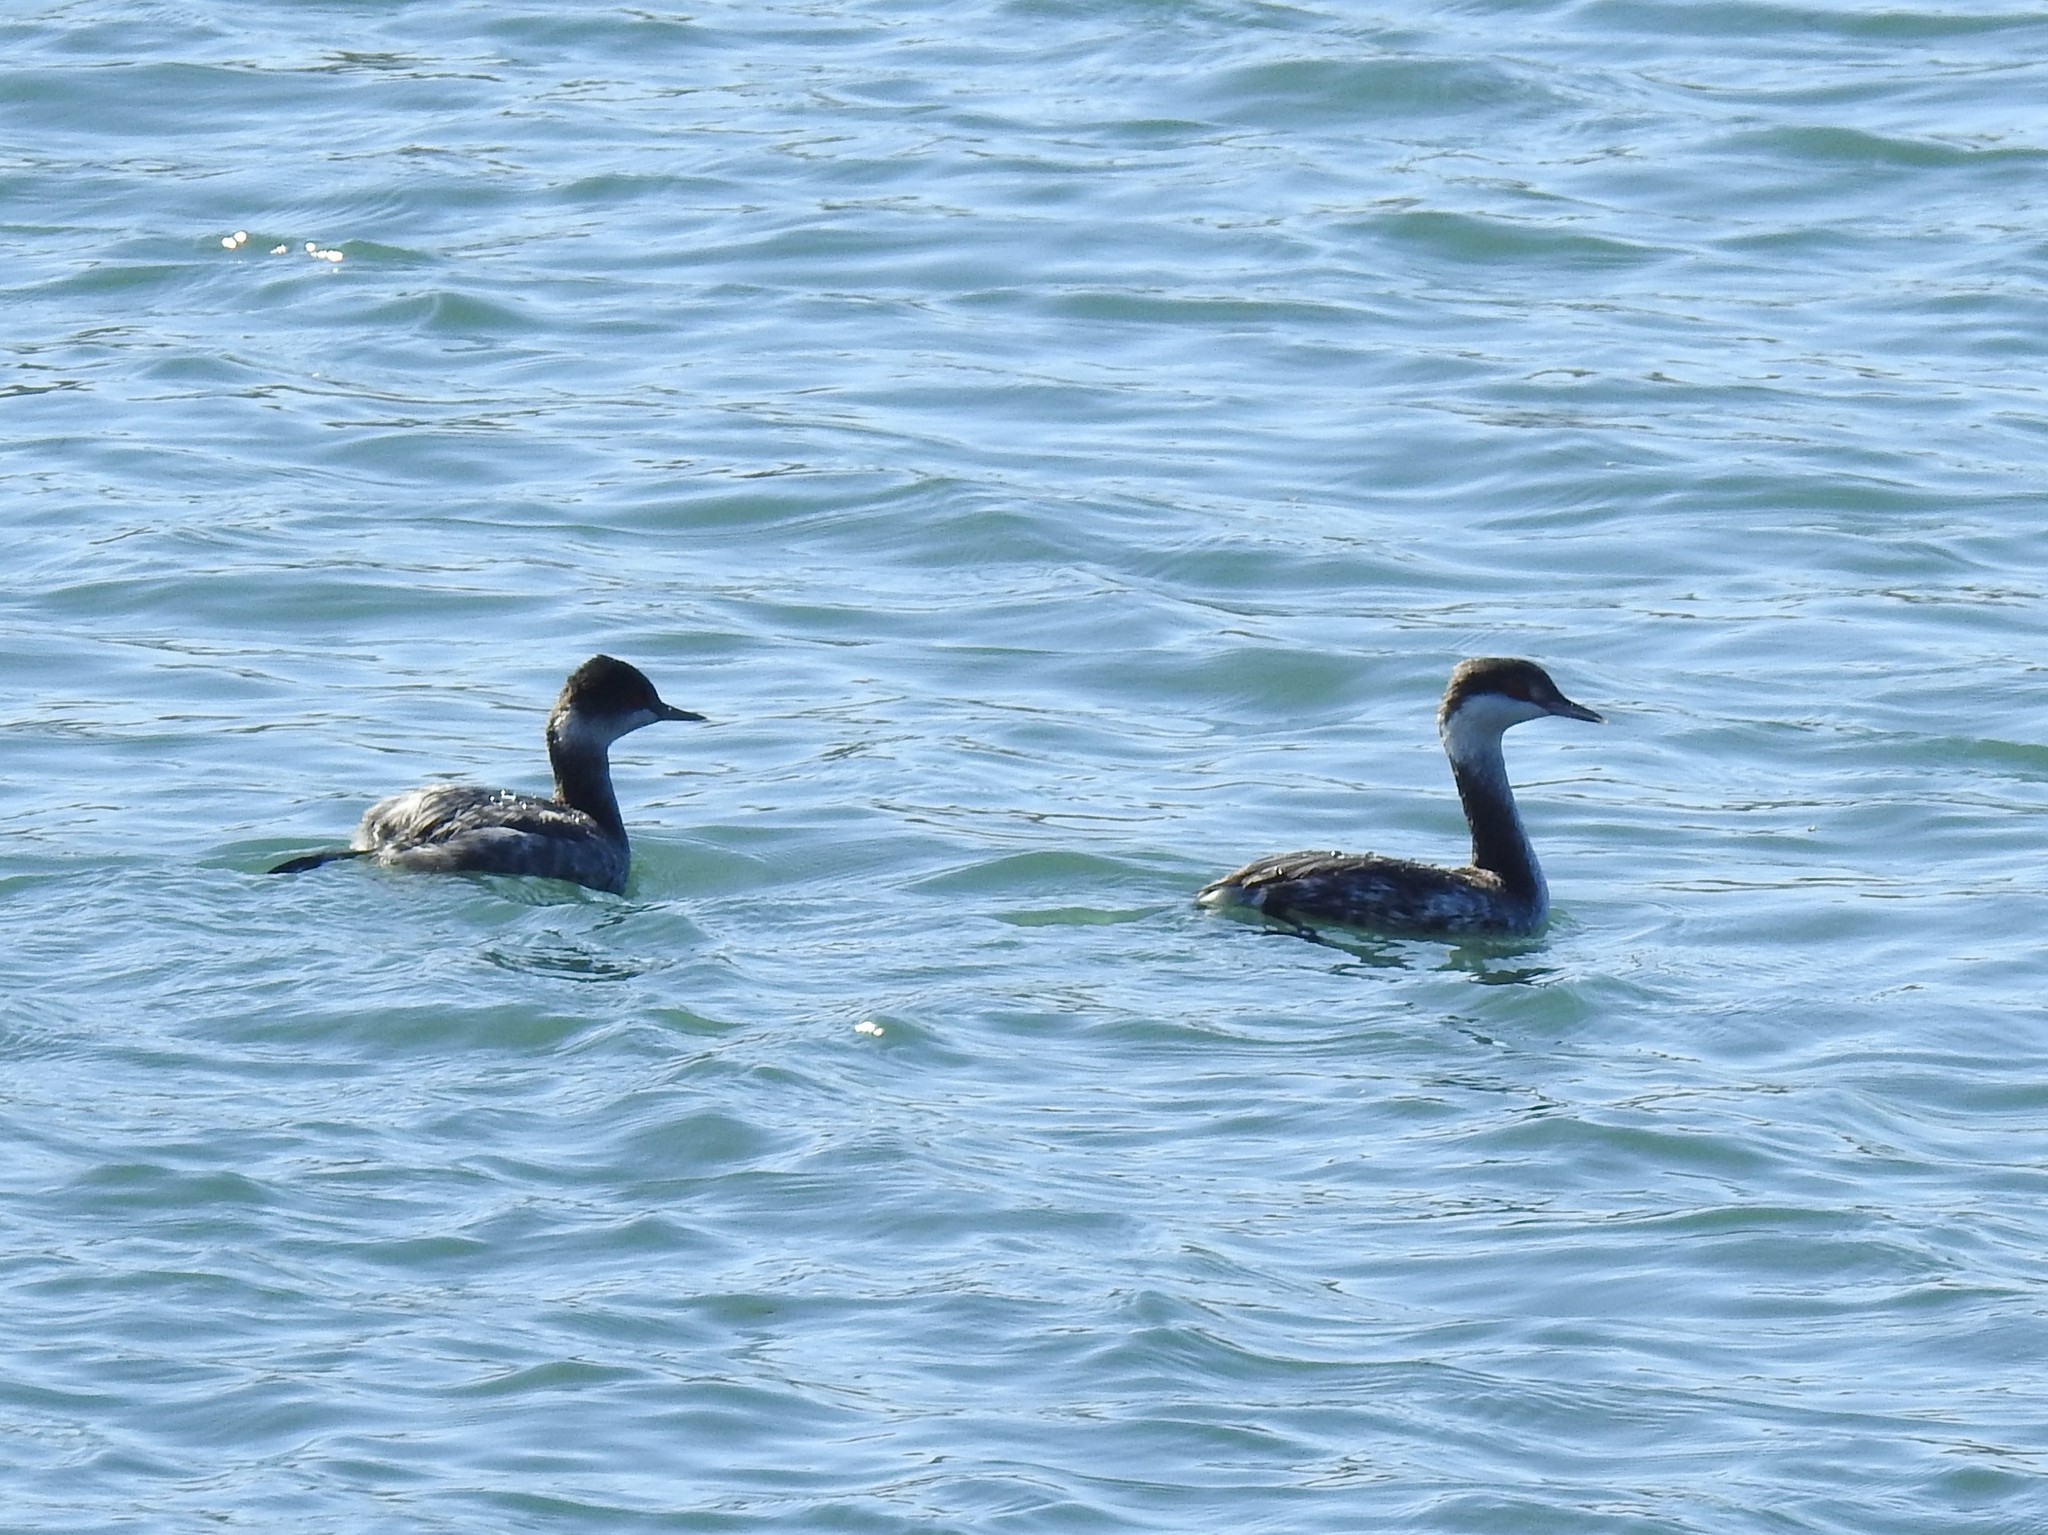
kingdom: Animalia
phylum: Chordata
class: Aves
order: Podicipediformes
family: Podicipedidae
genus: Podiceps
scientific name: Podiceps nigricollis
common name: Black-necked grebe
